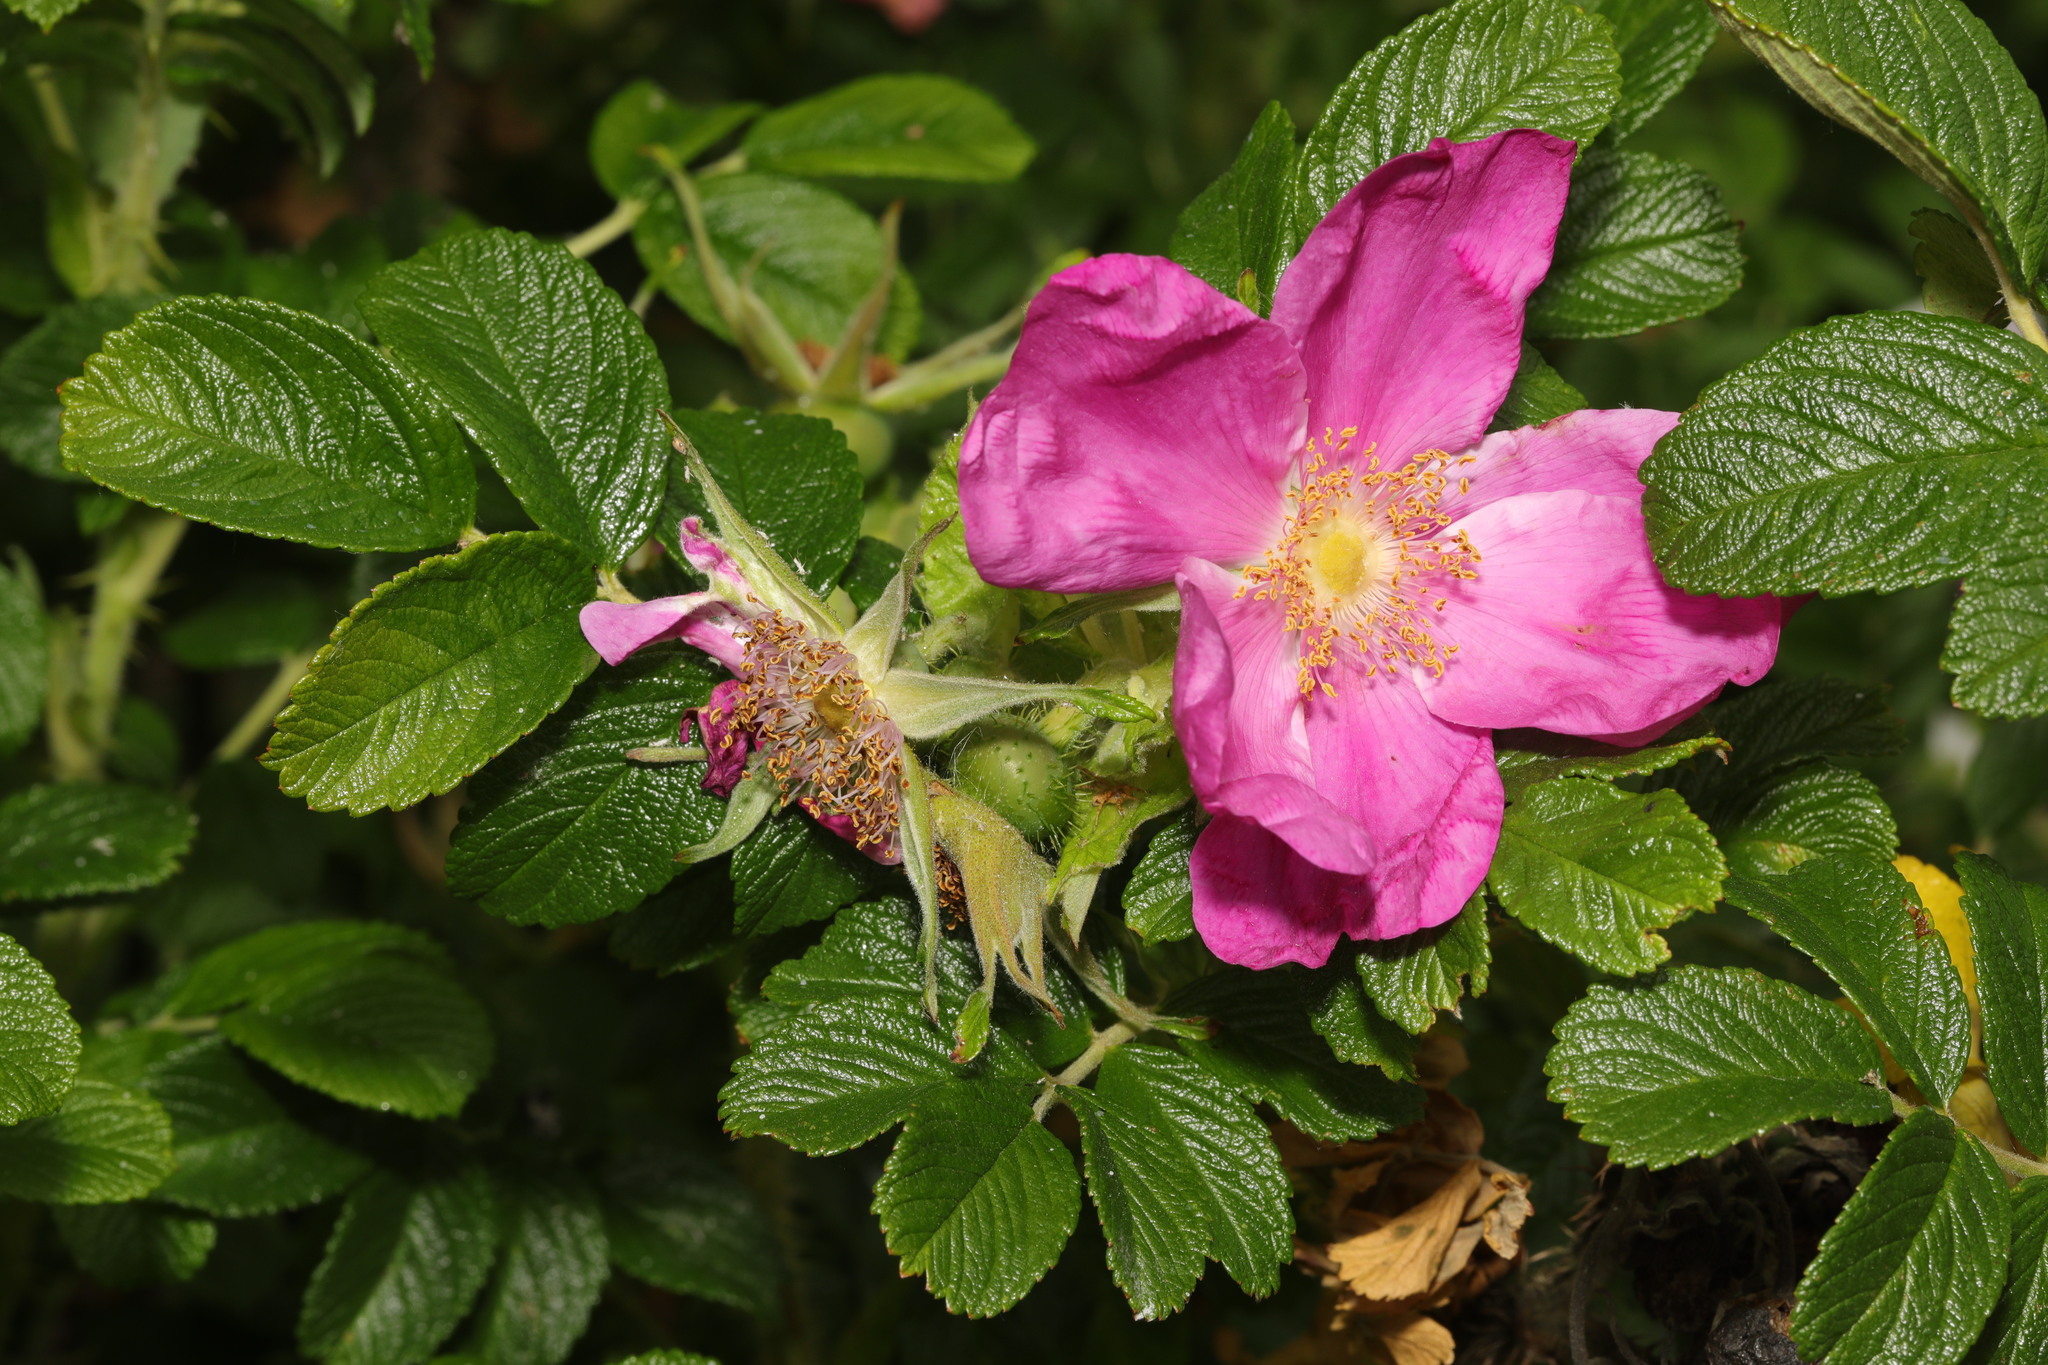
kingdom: Plantae
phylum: Tracheophyta
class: Magnoliopsida
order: Rosales
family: Rosaceae
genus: Rosa
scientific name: Rosa rugosa
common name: Japanese rose
